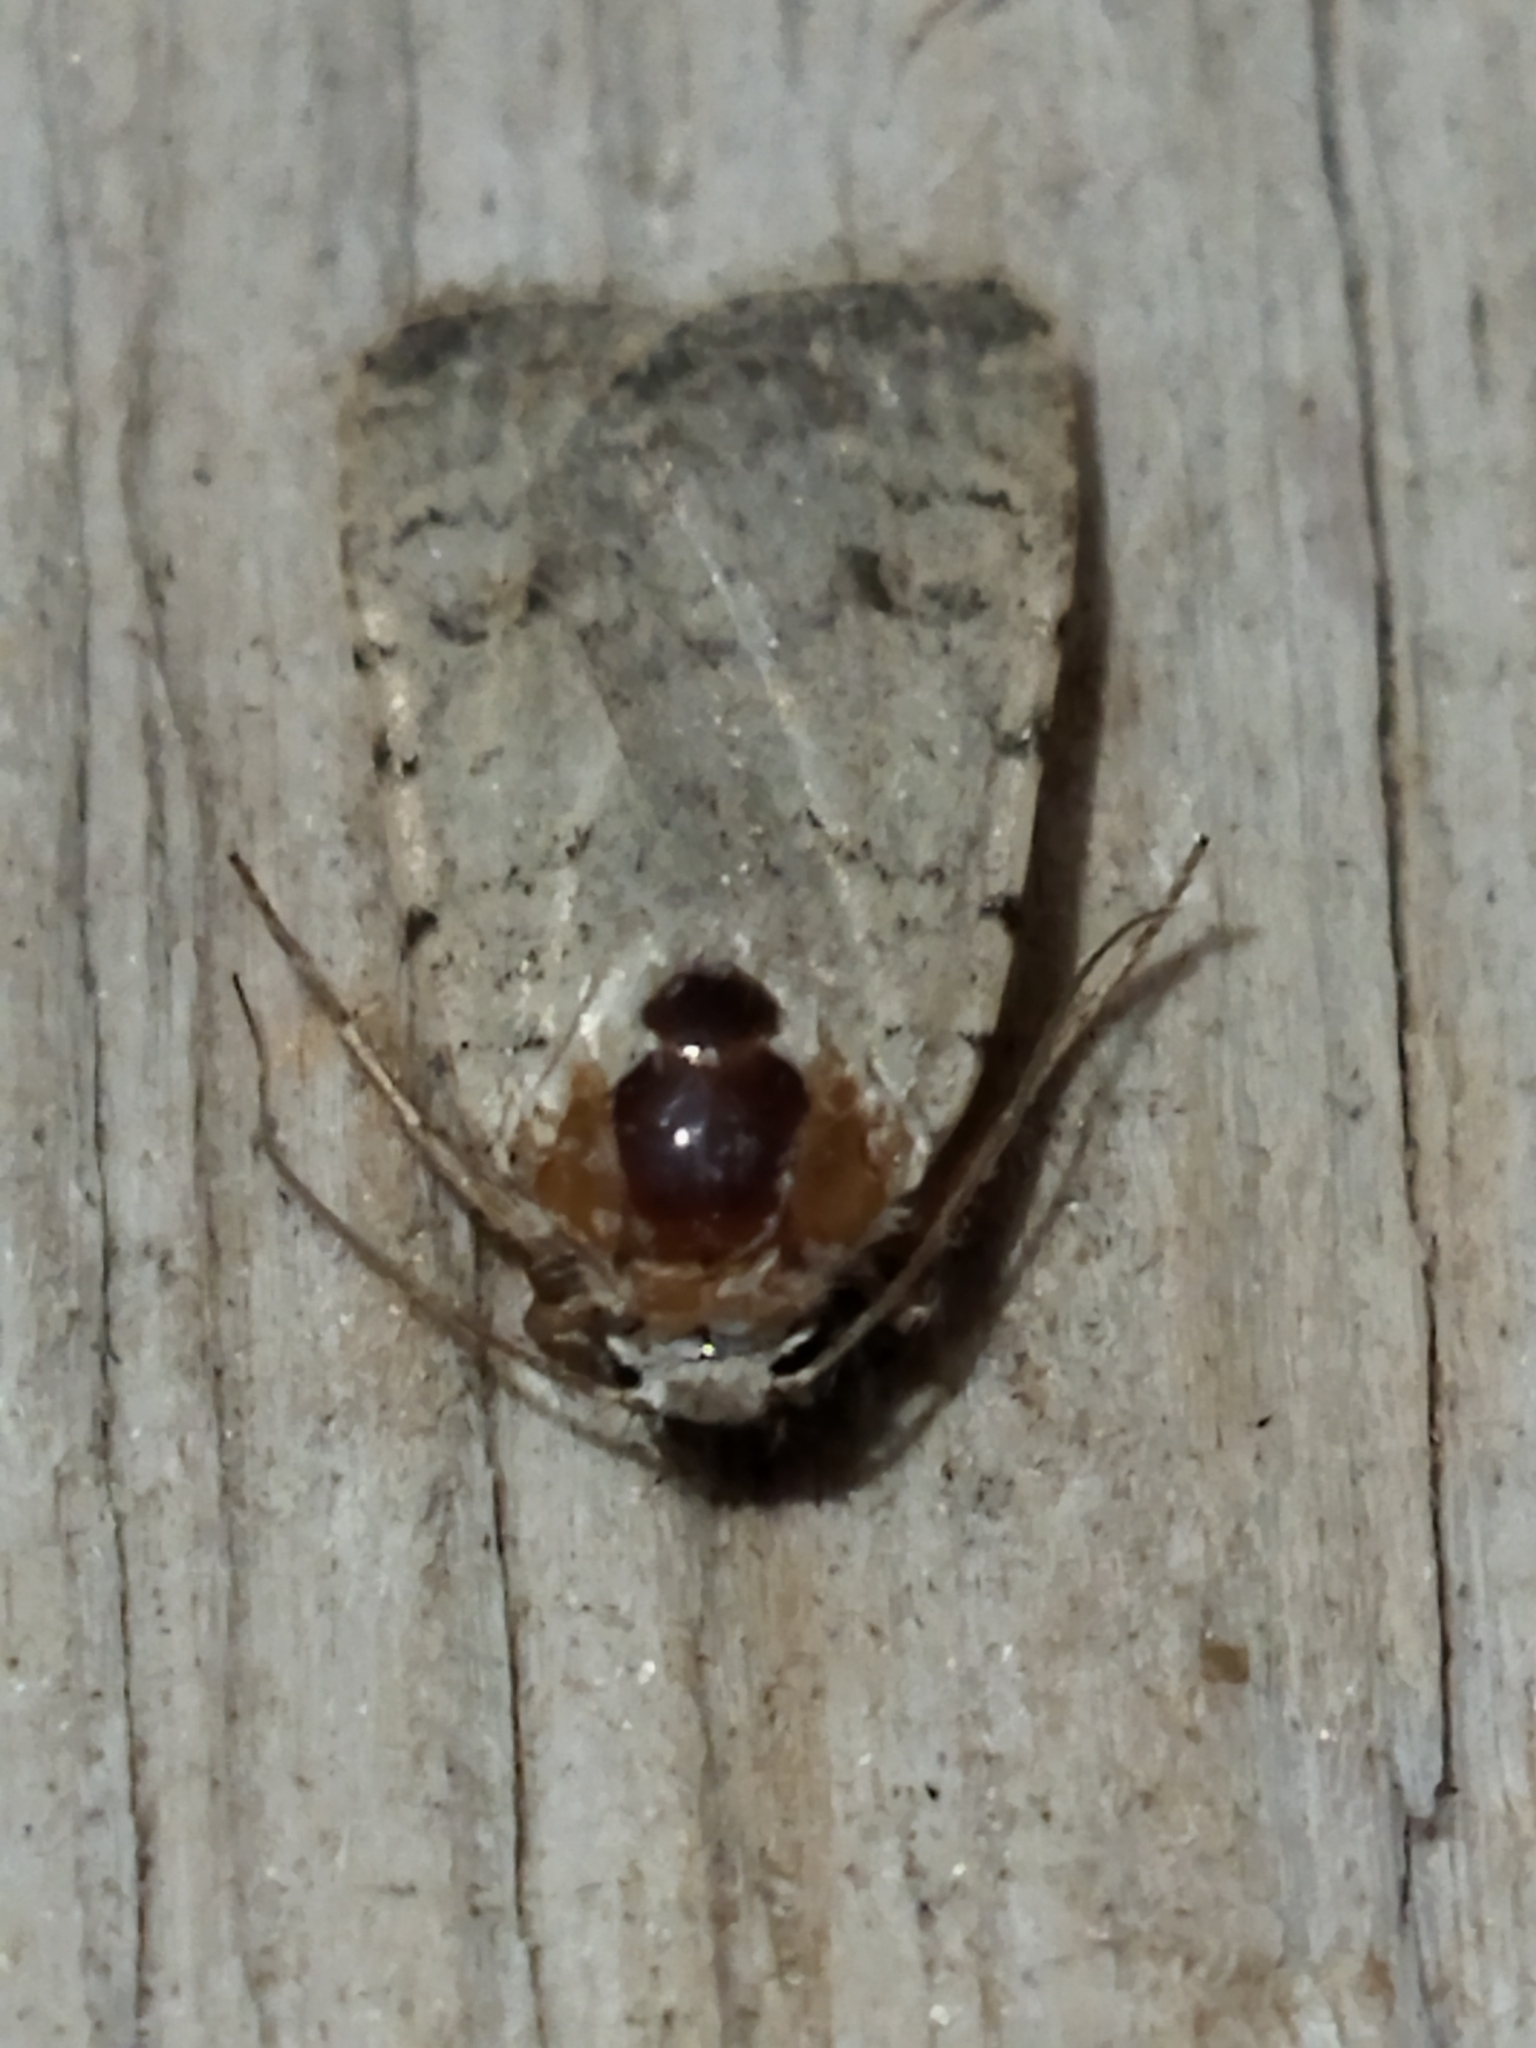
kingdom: Animalia
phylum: Arthropoda
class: Insecta
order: Lepidoptera
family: Noctuidae
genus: Caradrina
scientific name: Caradrina clavipalpis
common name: Pale mottled willow
